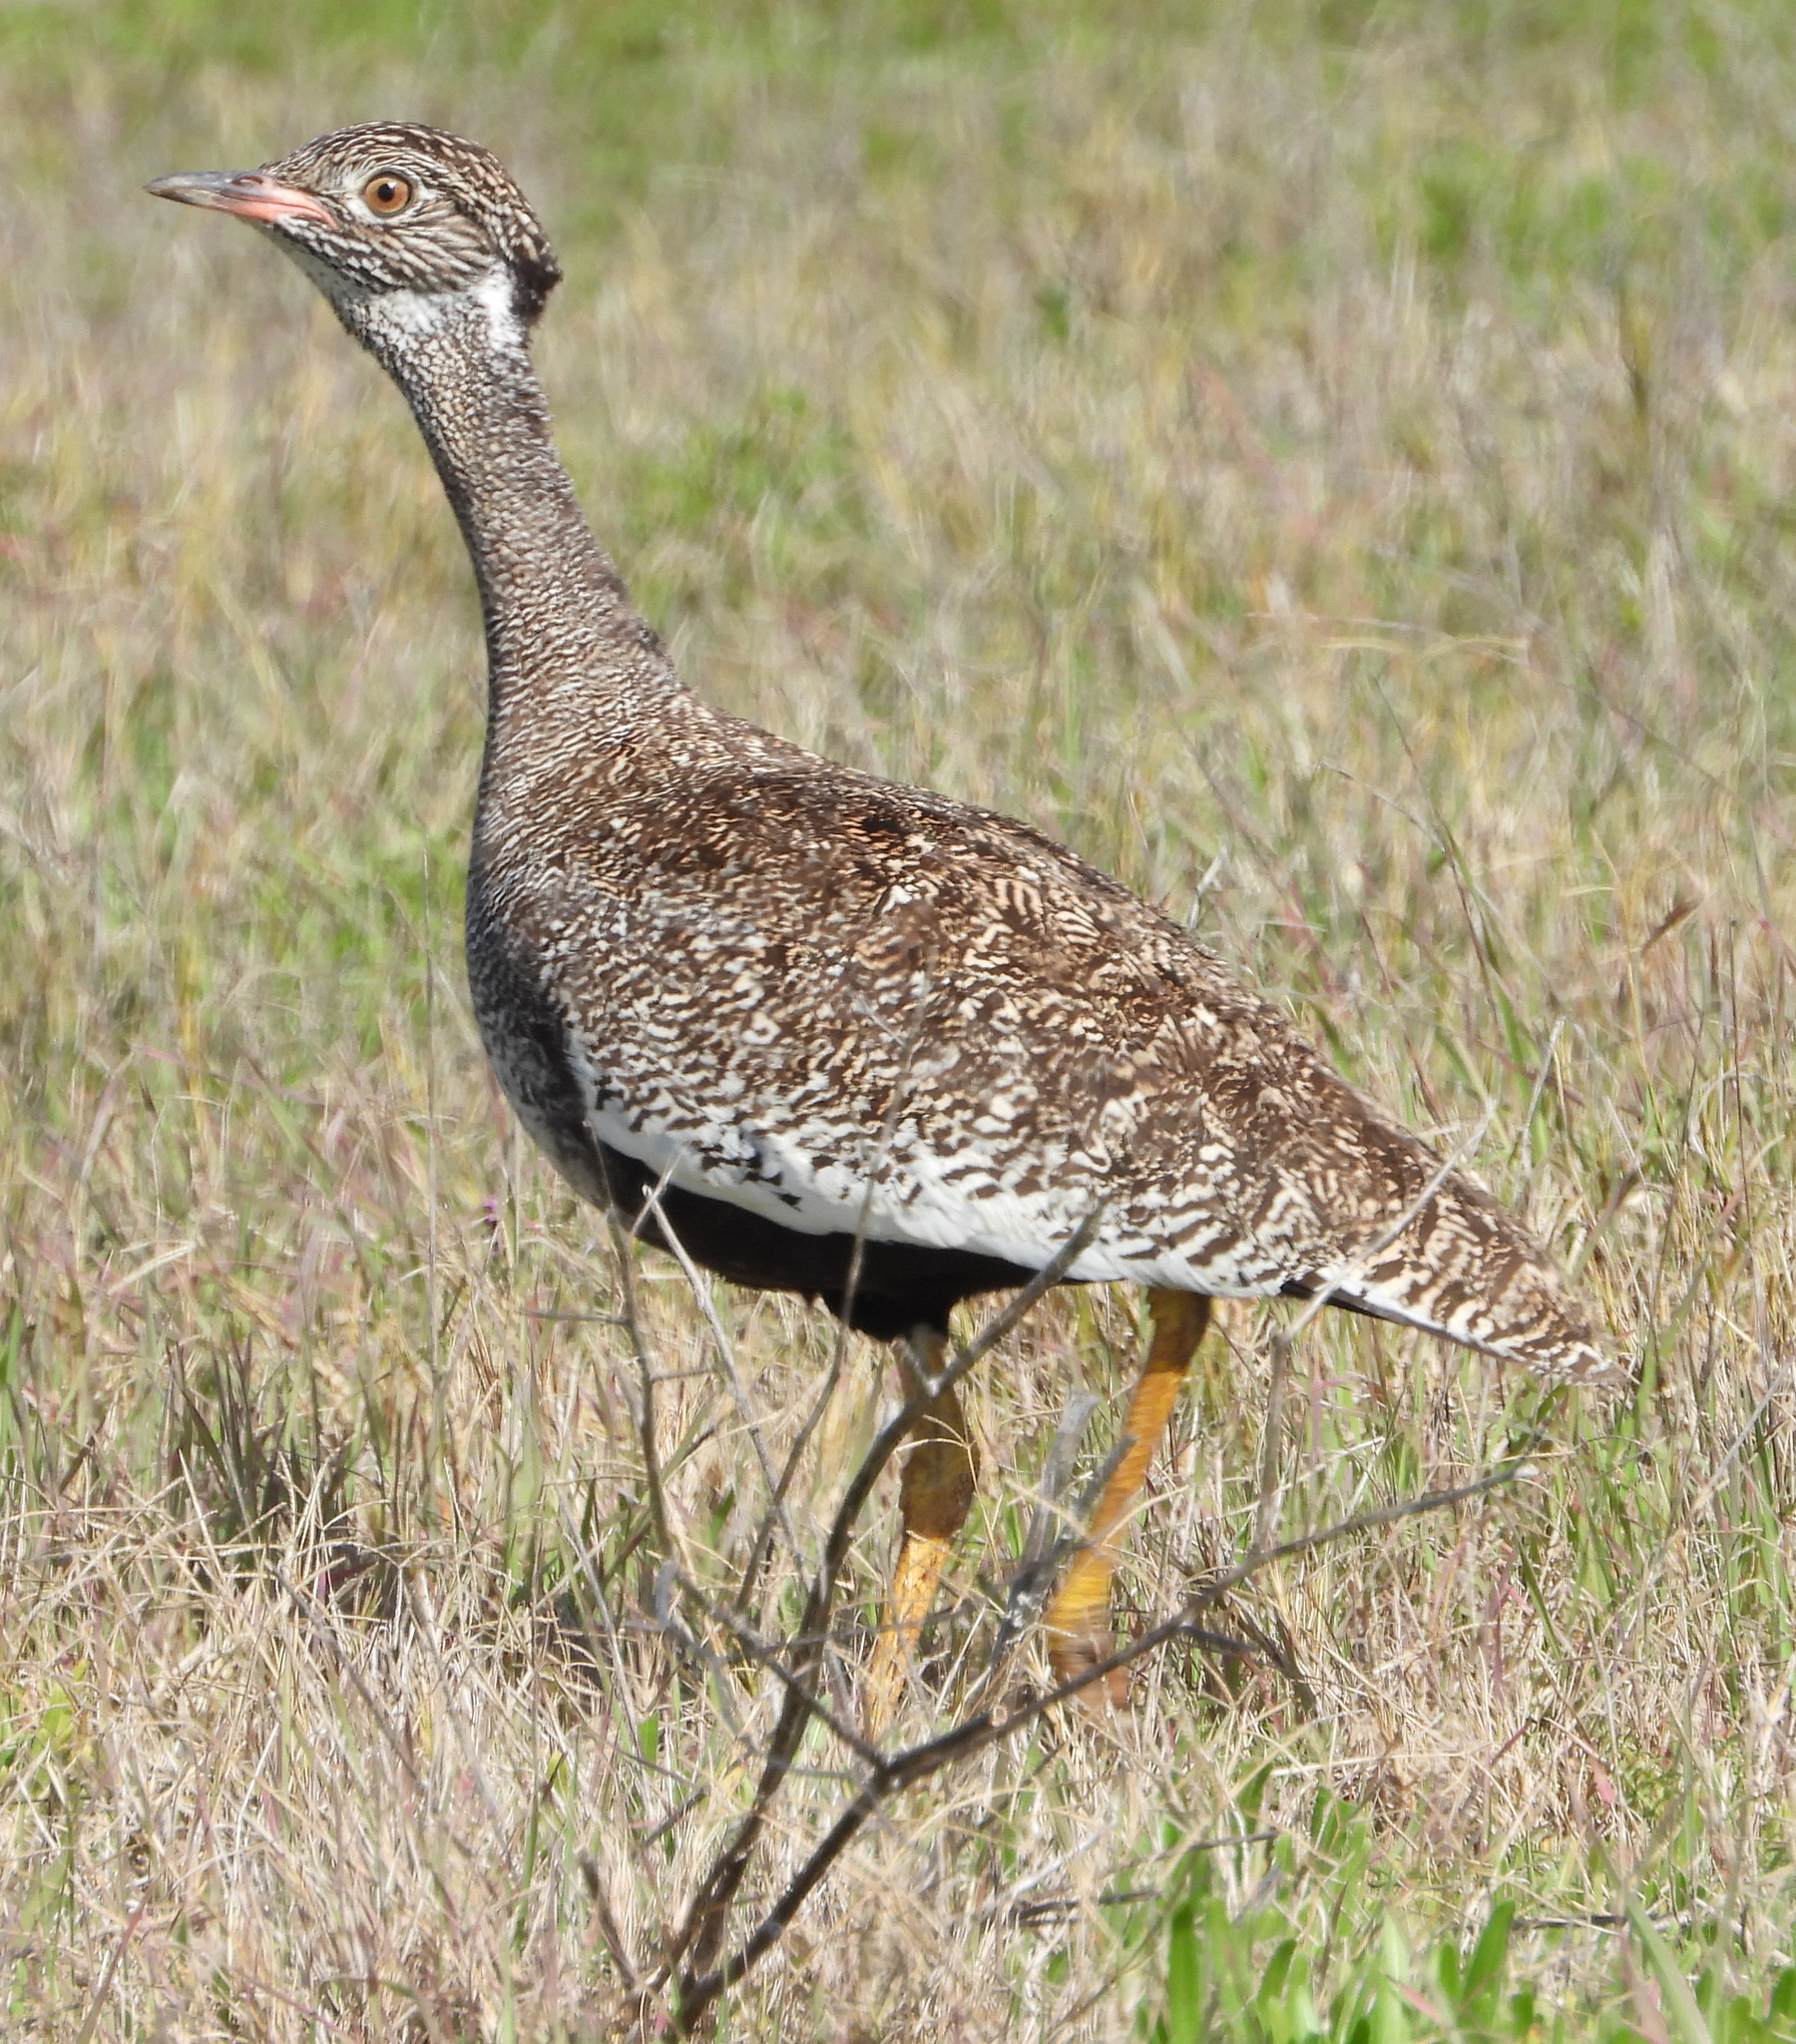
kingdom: Animalia
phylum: Chordata
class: Aves
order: Otidiformes
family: Otididae
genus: Afrotis
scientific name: Afrotis afra
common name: Southern black korhaan
